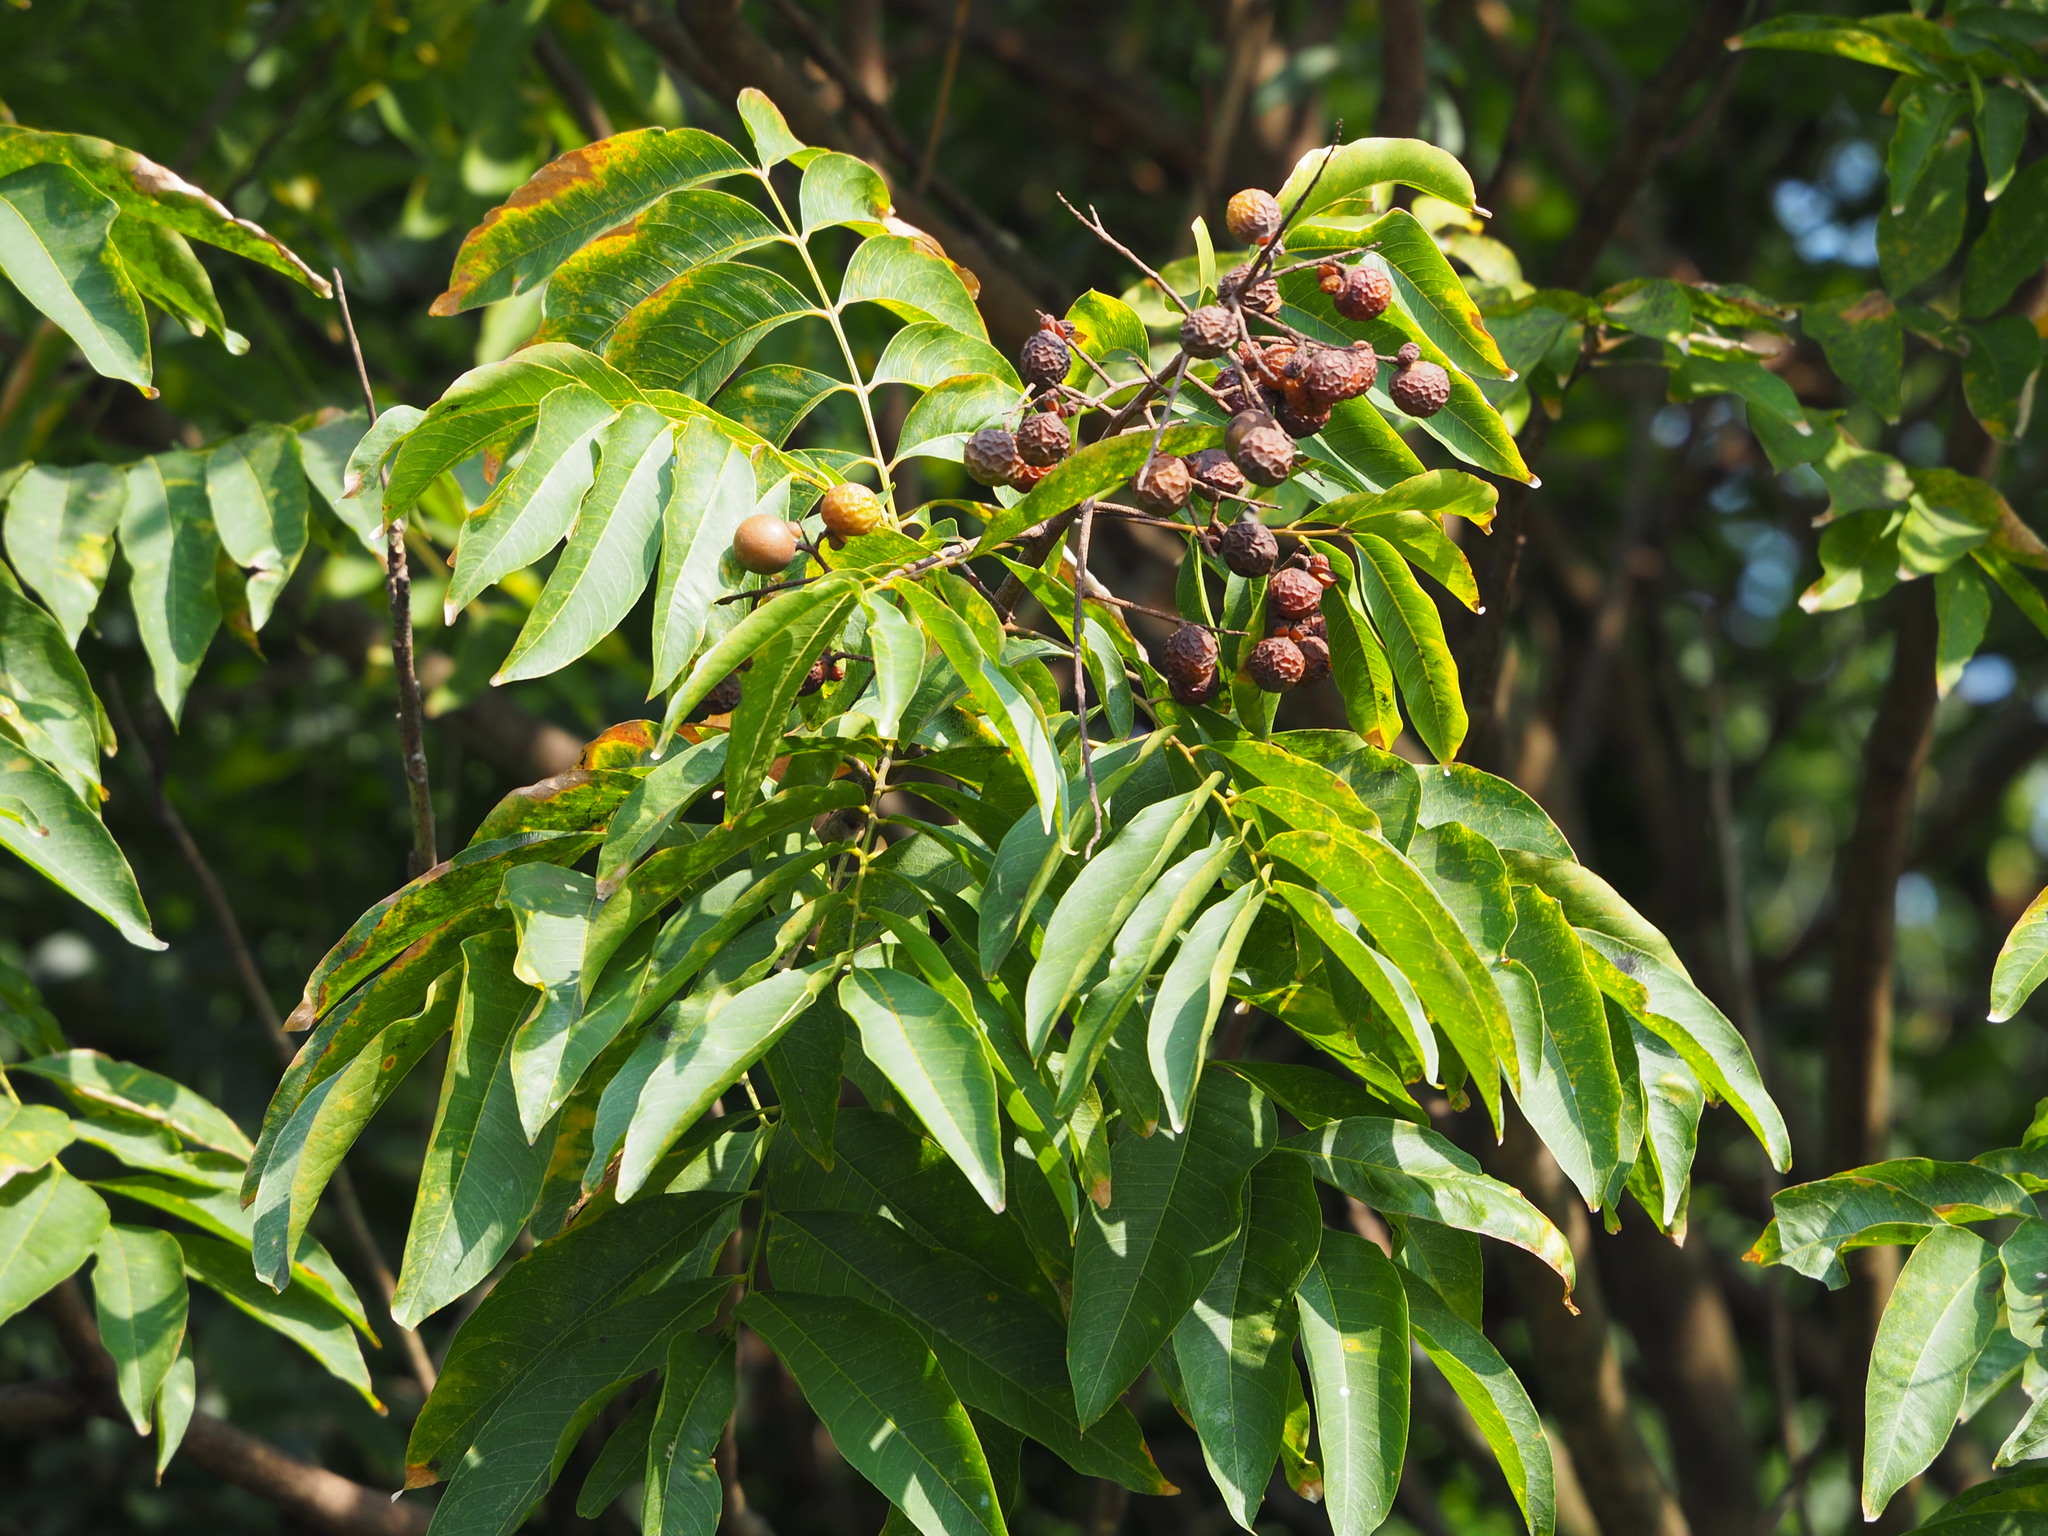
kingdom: Plantae
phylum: Tracheophyta
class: Magnoliopsida
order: Sapindales
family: Sapindaceae
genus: Sapindus
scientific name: Sapindus mukorossi
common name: Chinese soapberry
